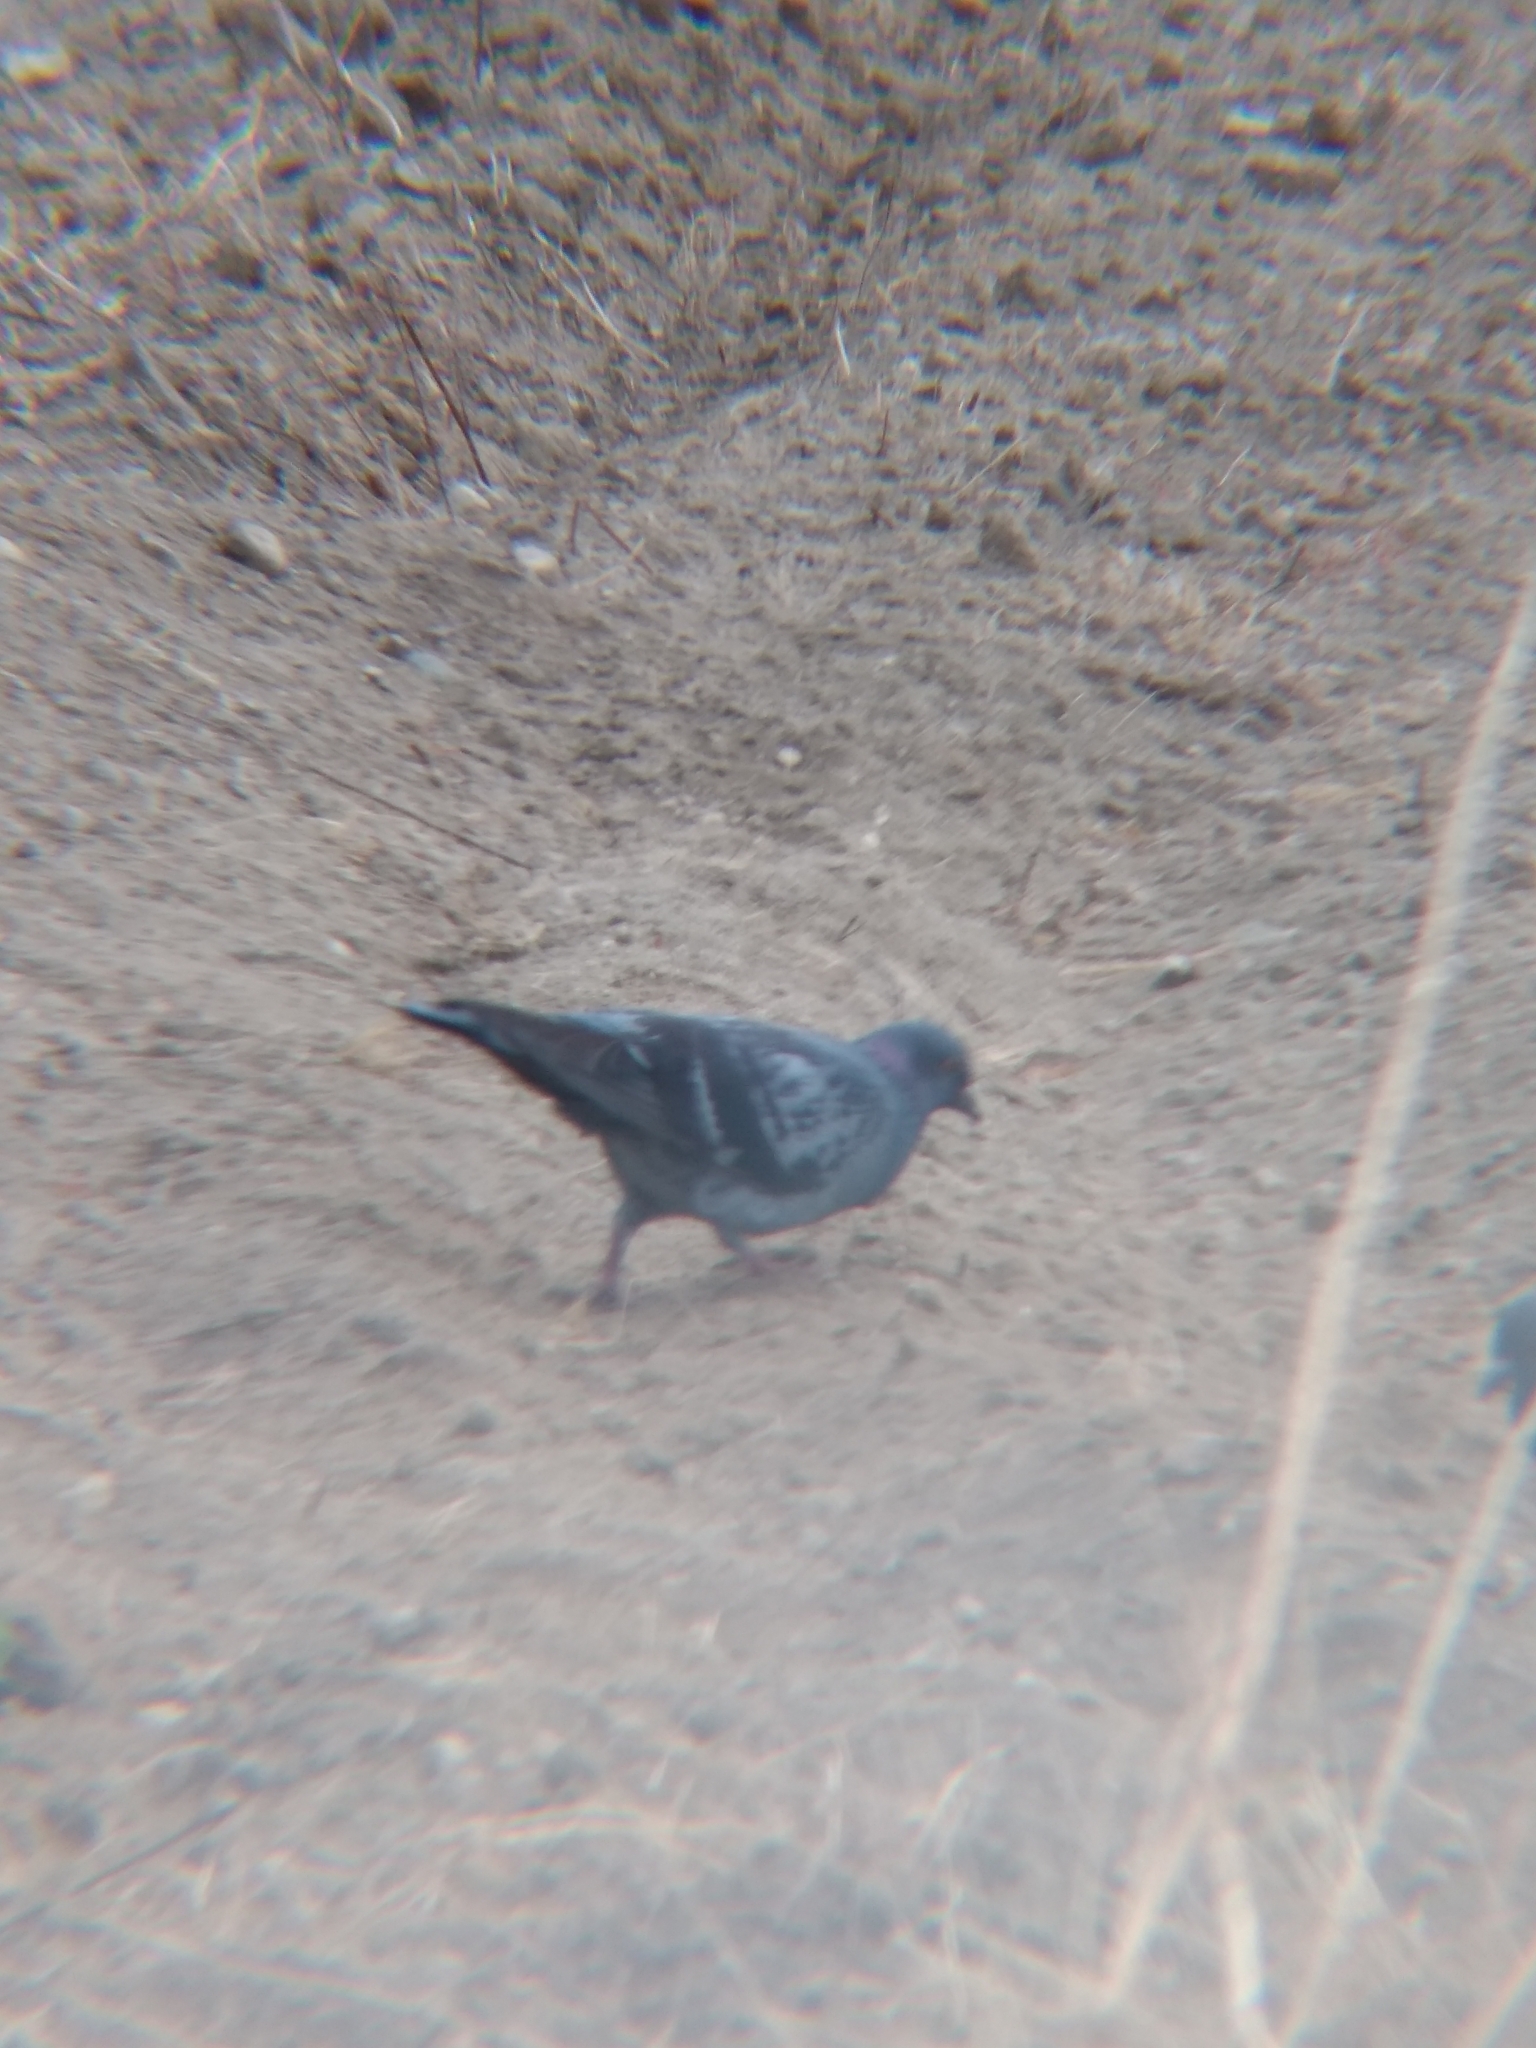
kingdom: Animalia
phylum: Chordata
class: Aves
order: Columbiformes
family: Columbidae
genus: Columba
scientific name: Columba livia
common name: Rock pigeon
